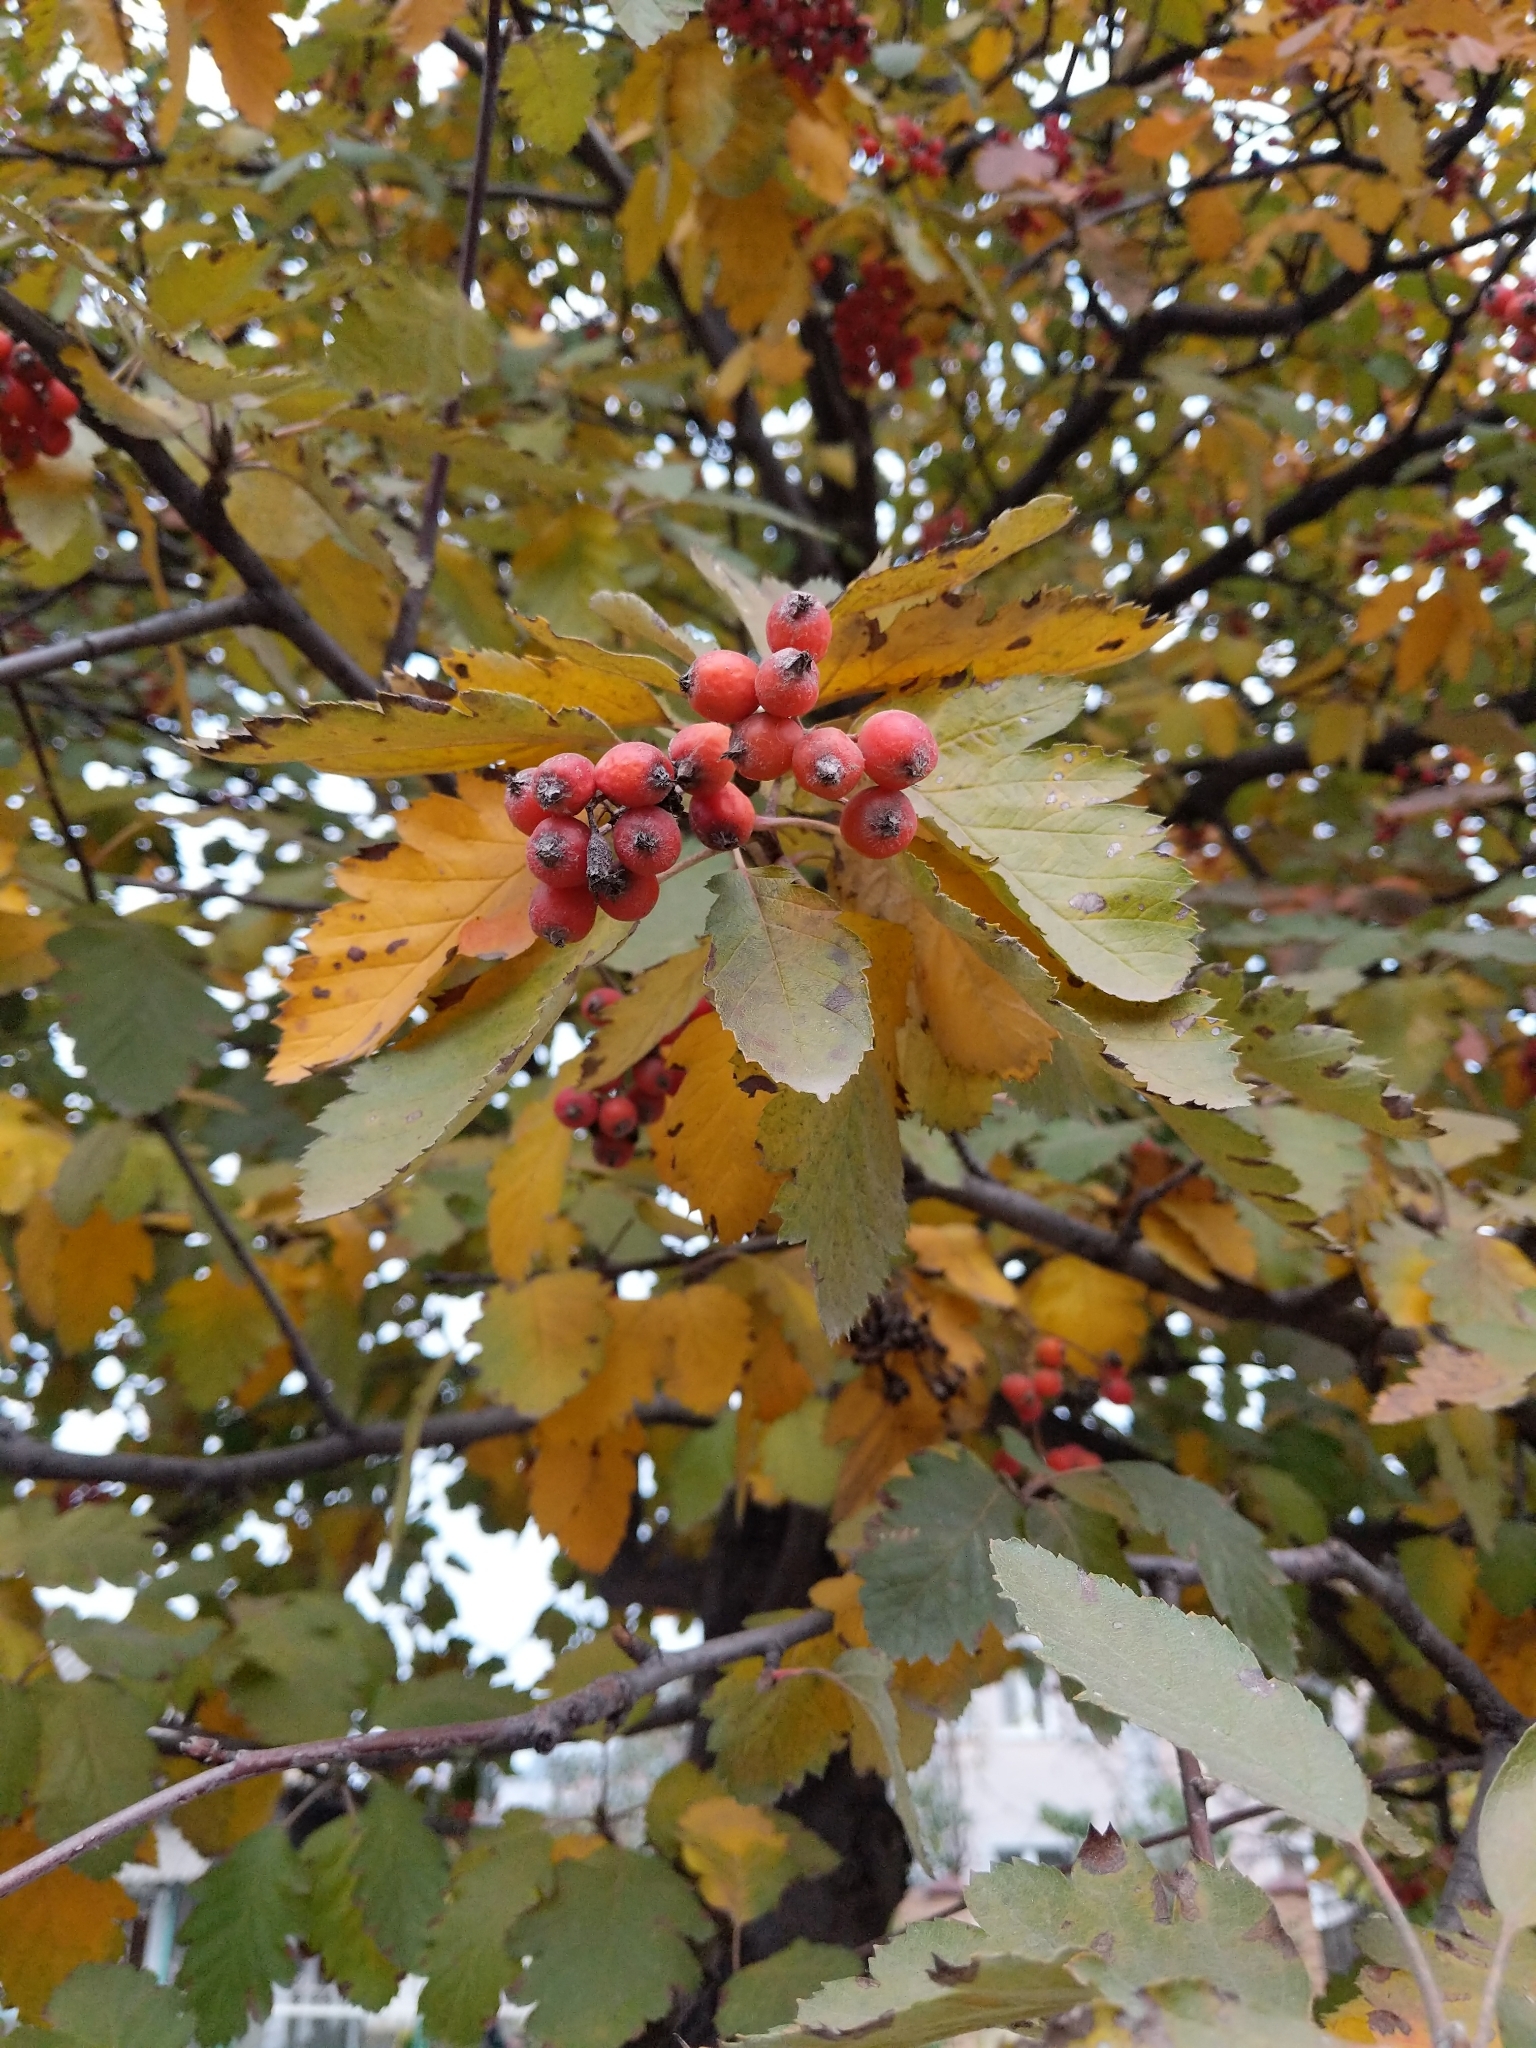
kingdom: Plantae
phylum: Tracheophyta
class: Magnoliopsida
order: Rosales
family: Rosaceae
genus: Scandosorbus
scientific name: Scandosorbus intermedia
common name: Swedish whitebeam
